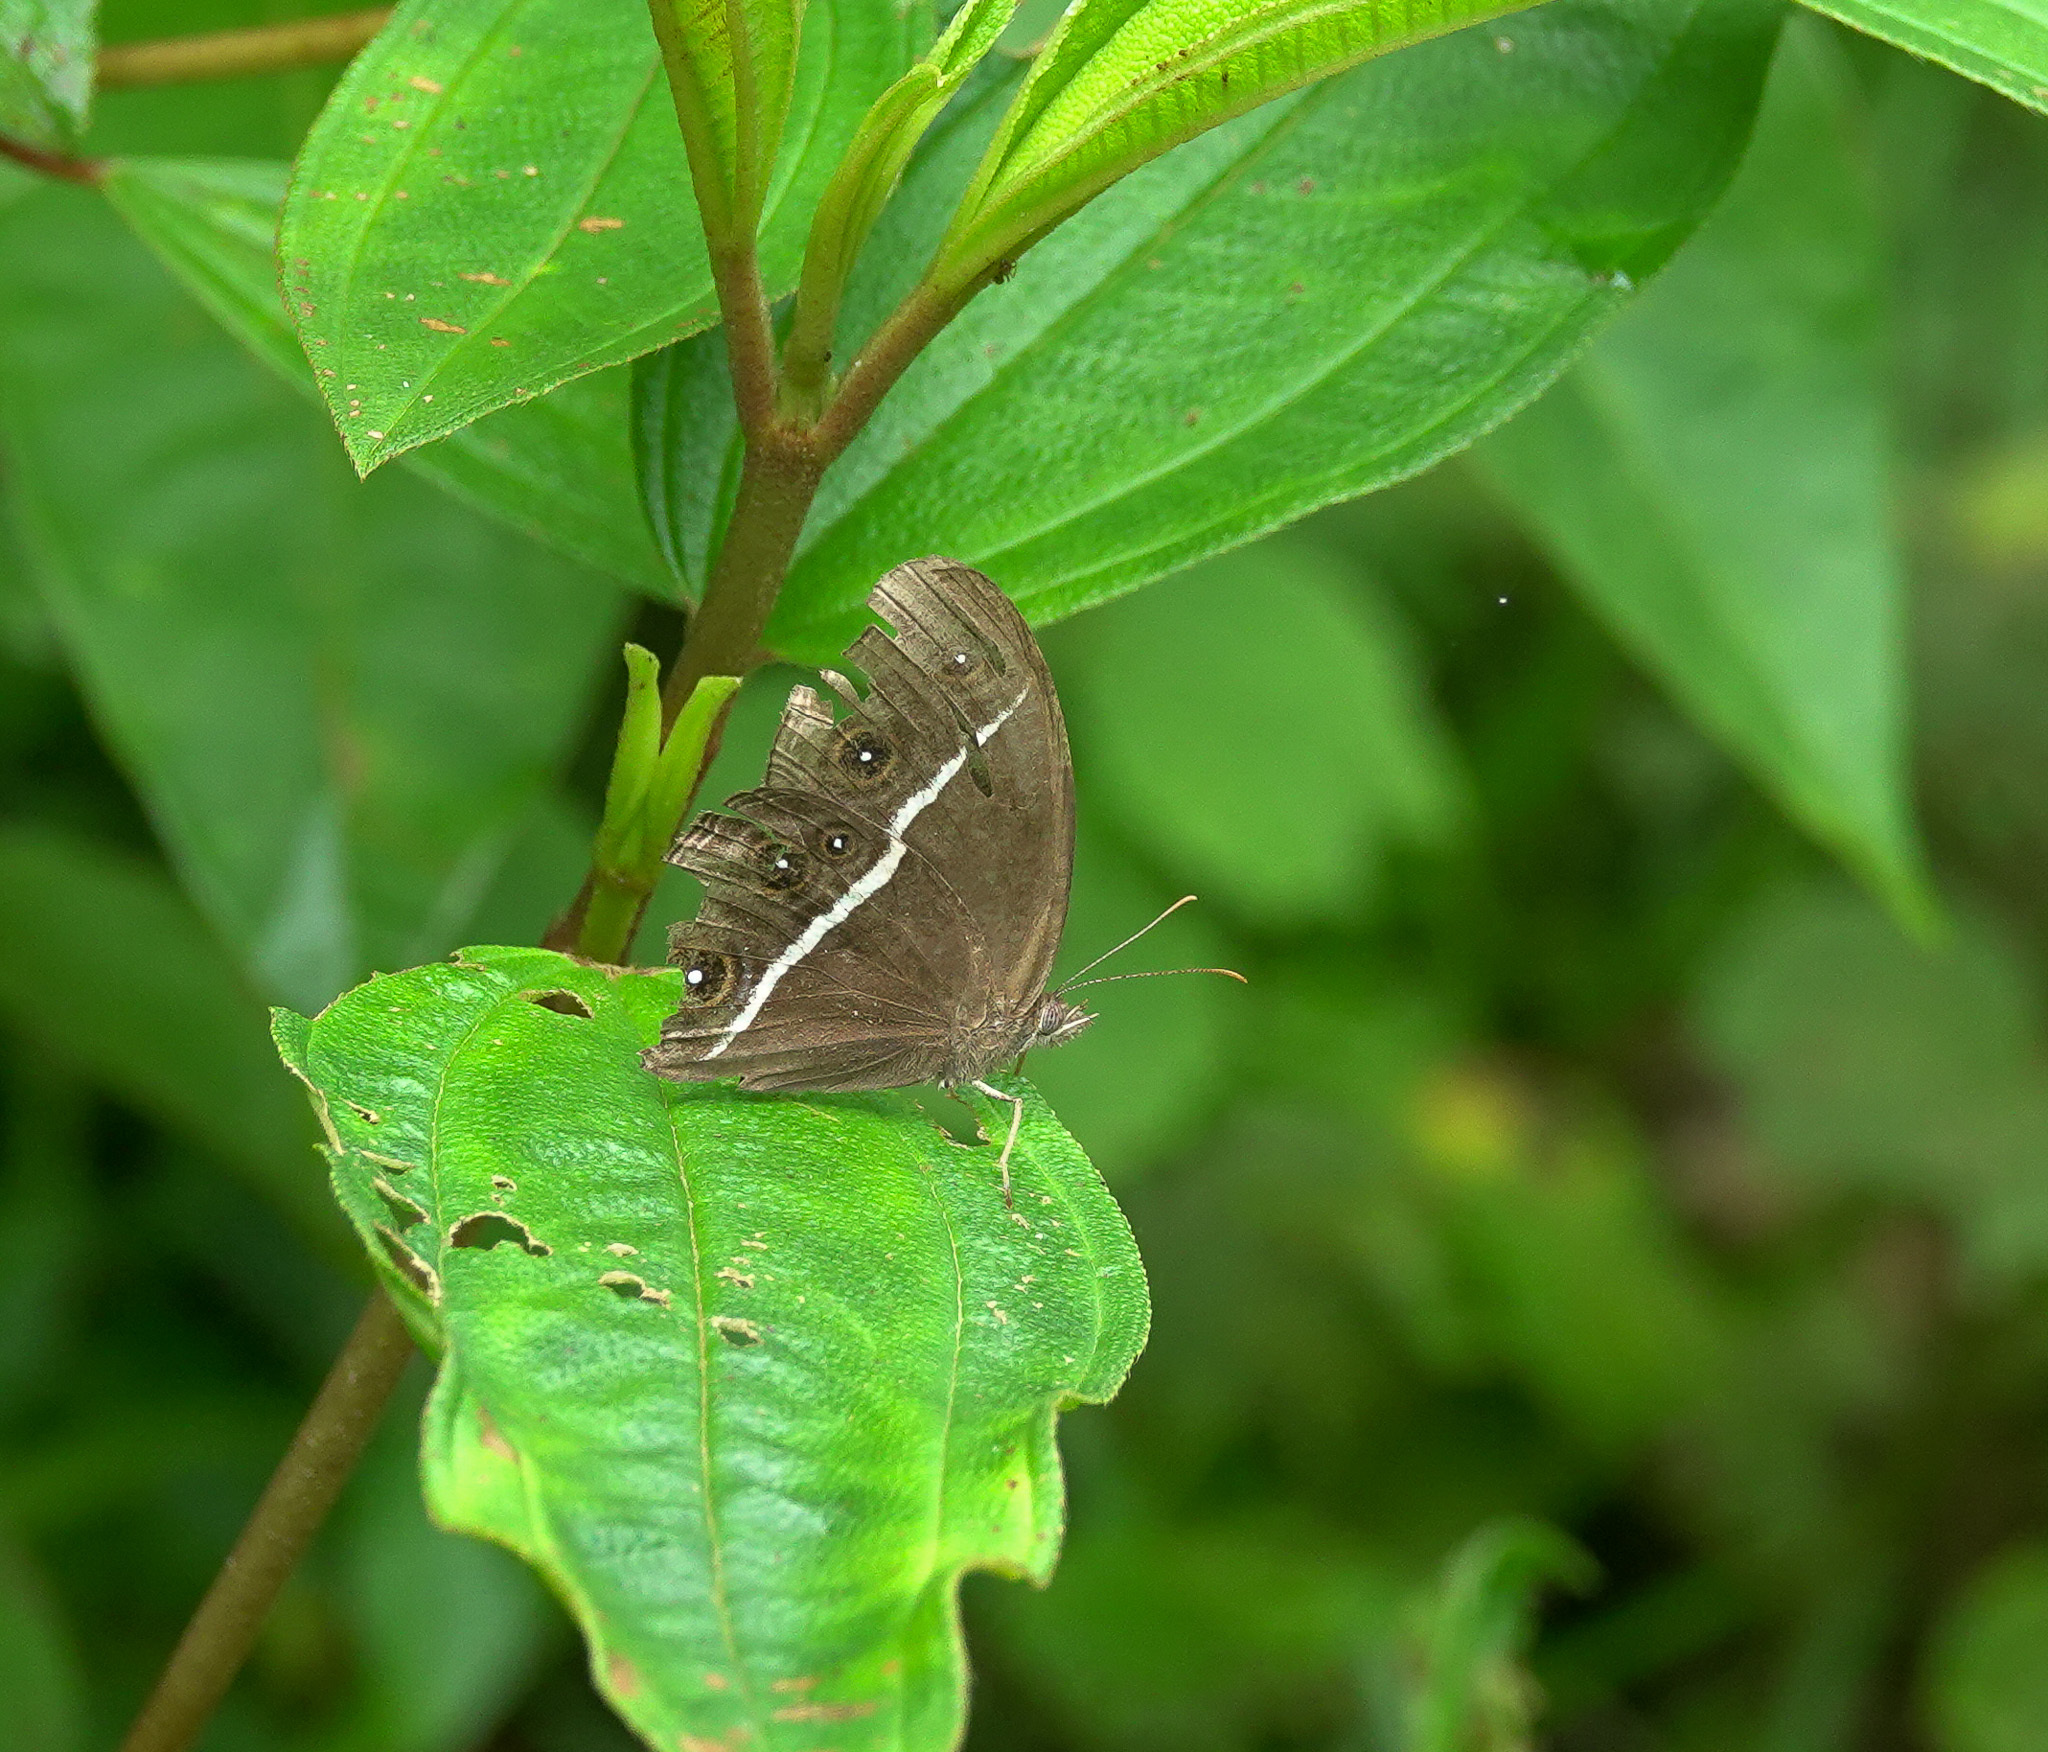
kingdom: Animalia
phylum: Arthropoda
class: Insecta
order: Lepidoptera
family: Nymphalidae
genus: Orsotriaena
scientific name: Orsotriaena medus
